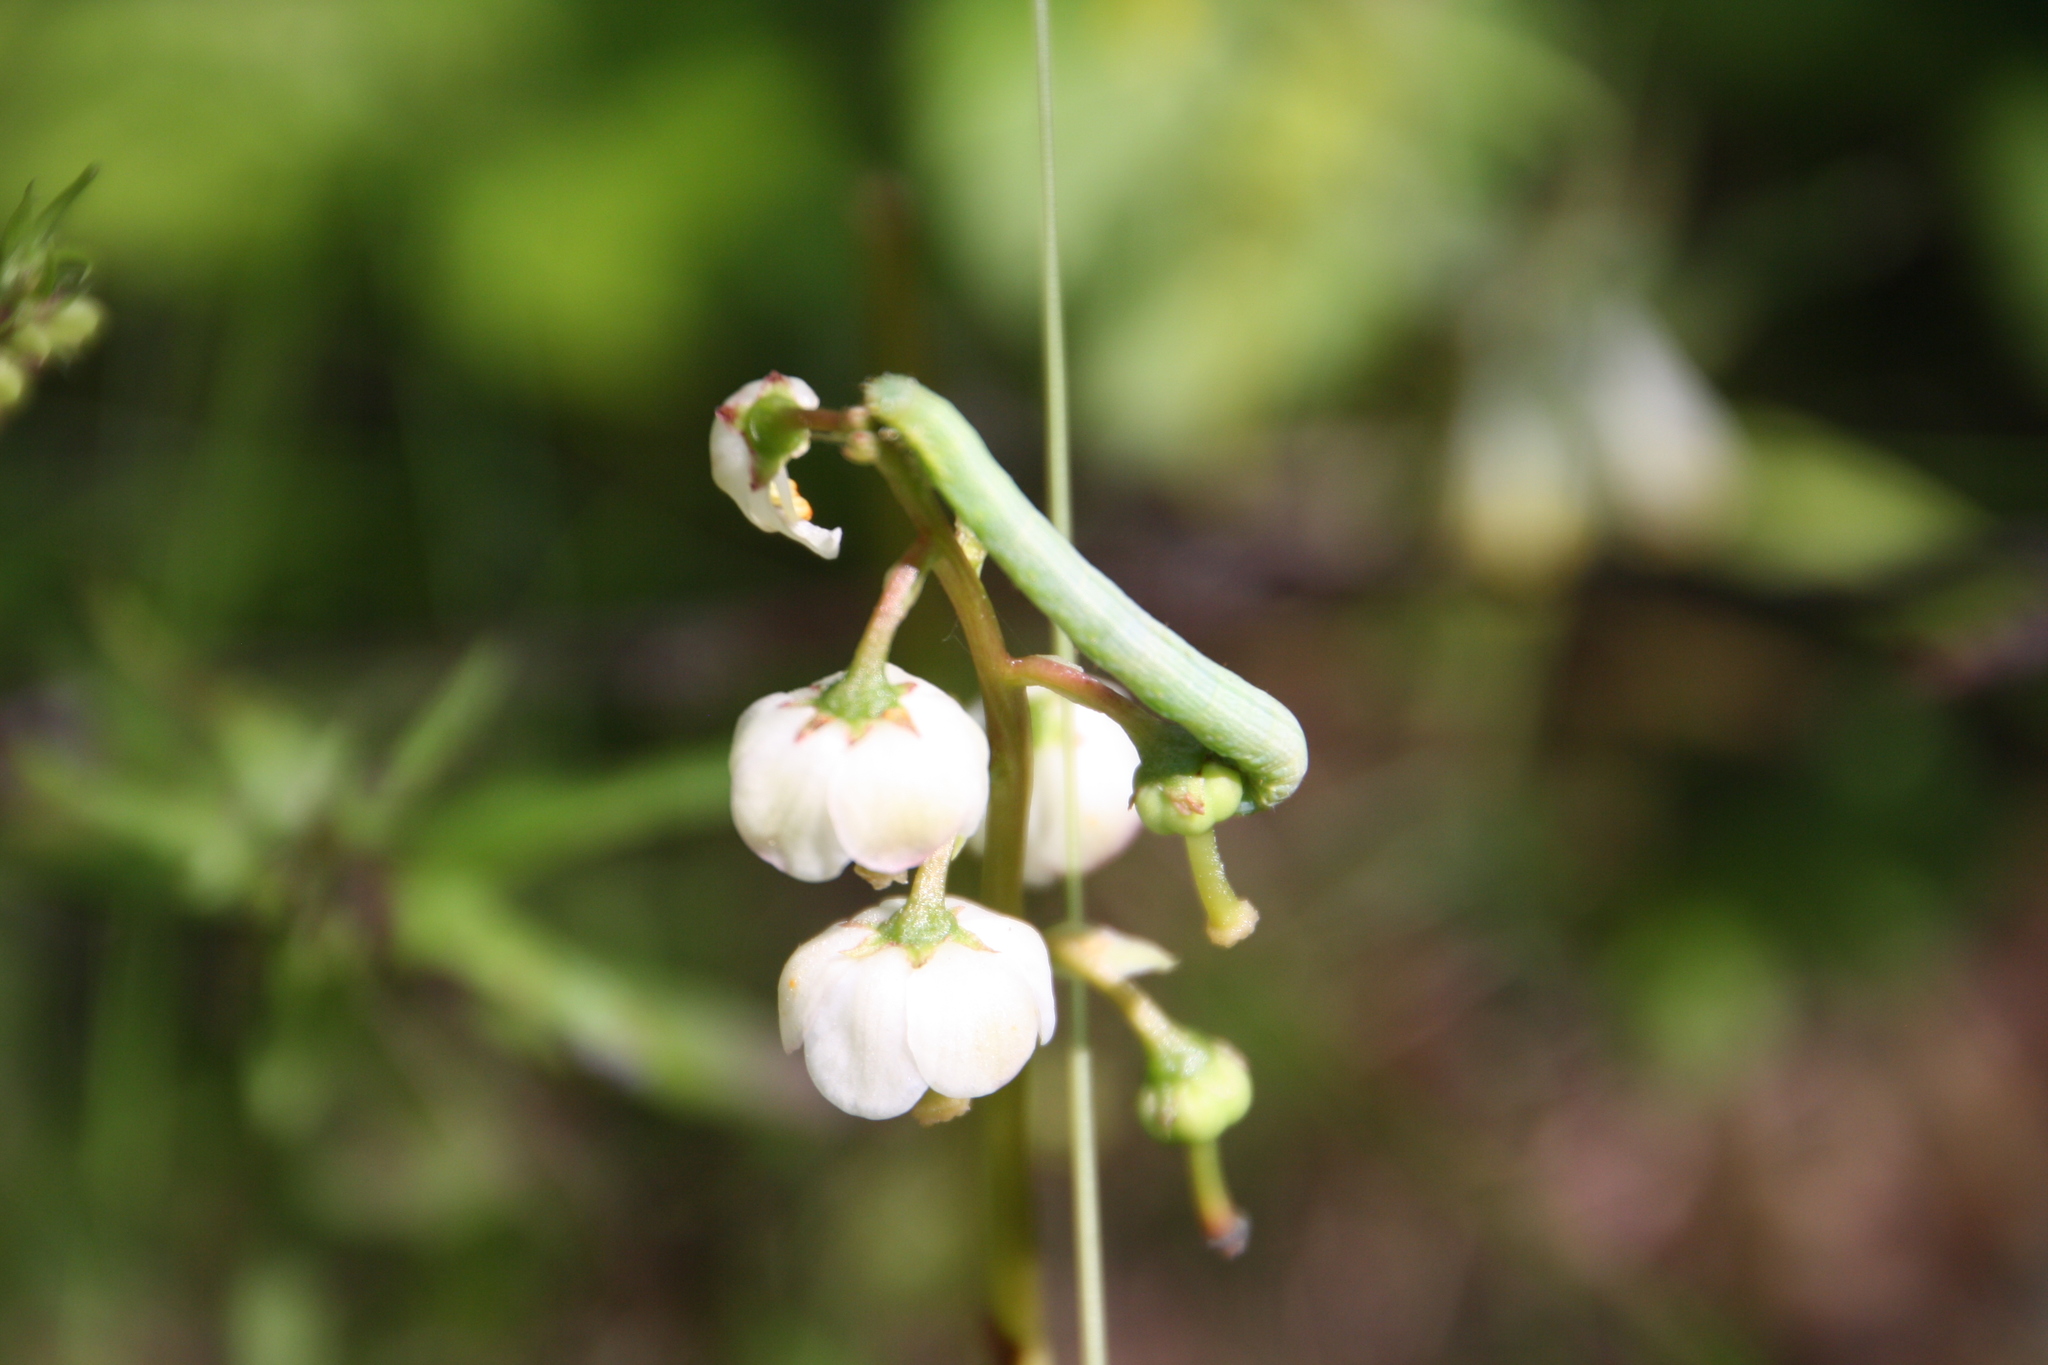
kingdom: Plantae
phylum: Tracheophyta
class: Magnoliopsida
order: Ericales
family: Ericaceae
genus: Pyrola
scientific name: Pyrola minor
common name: Common wintergreen
